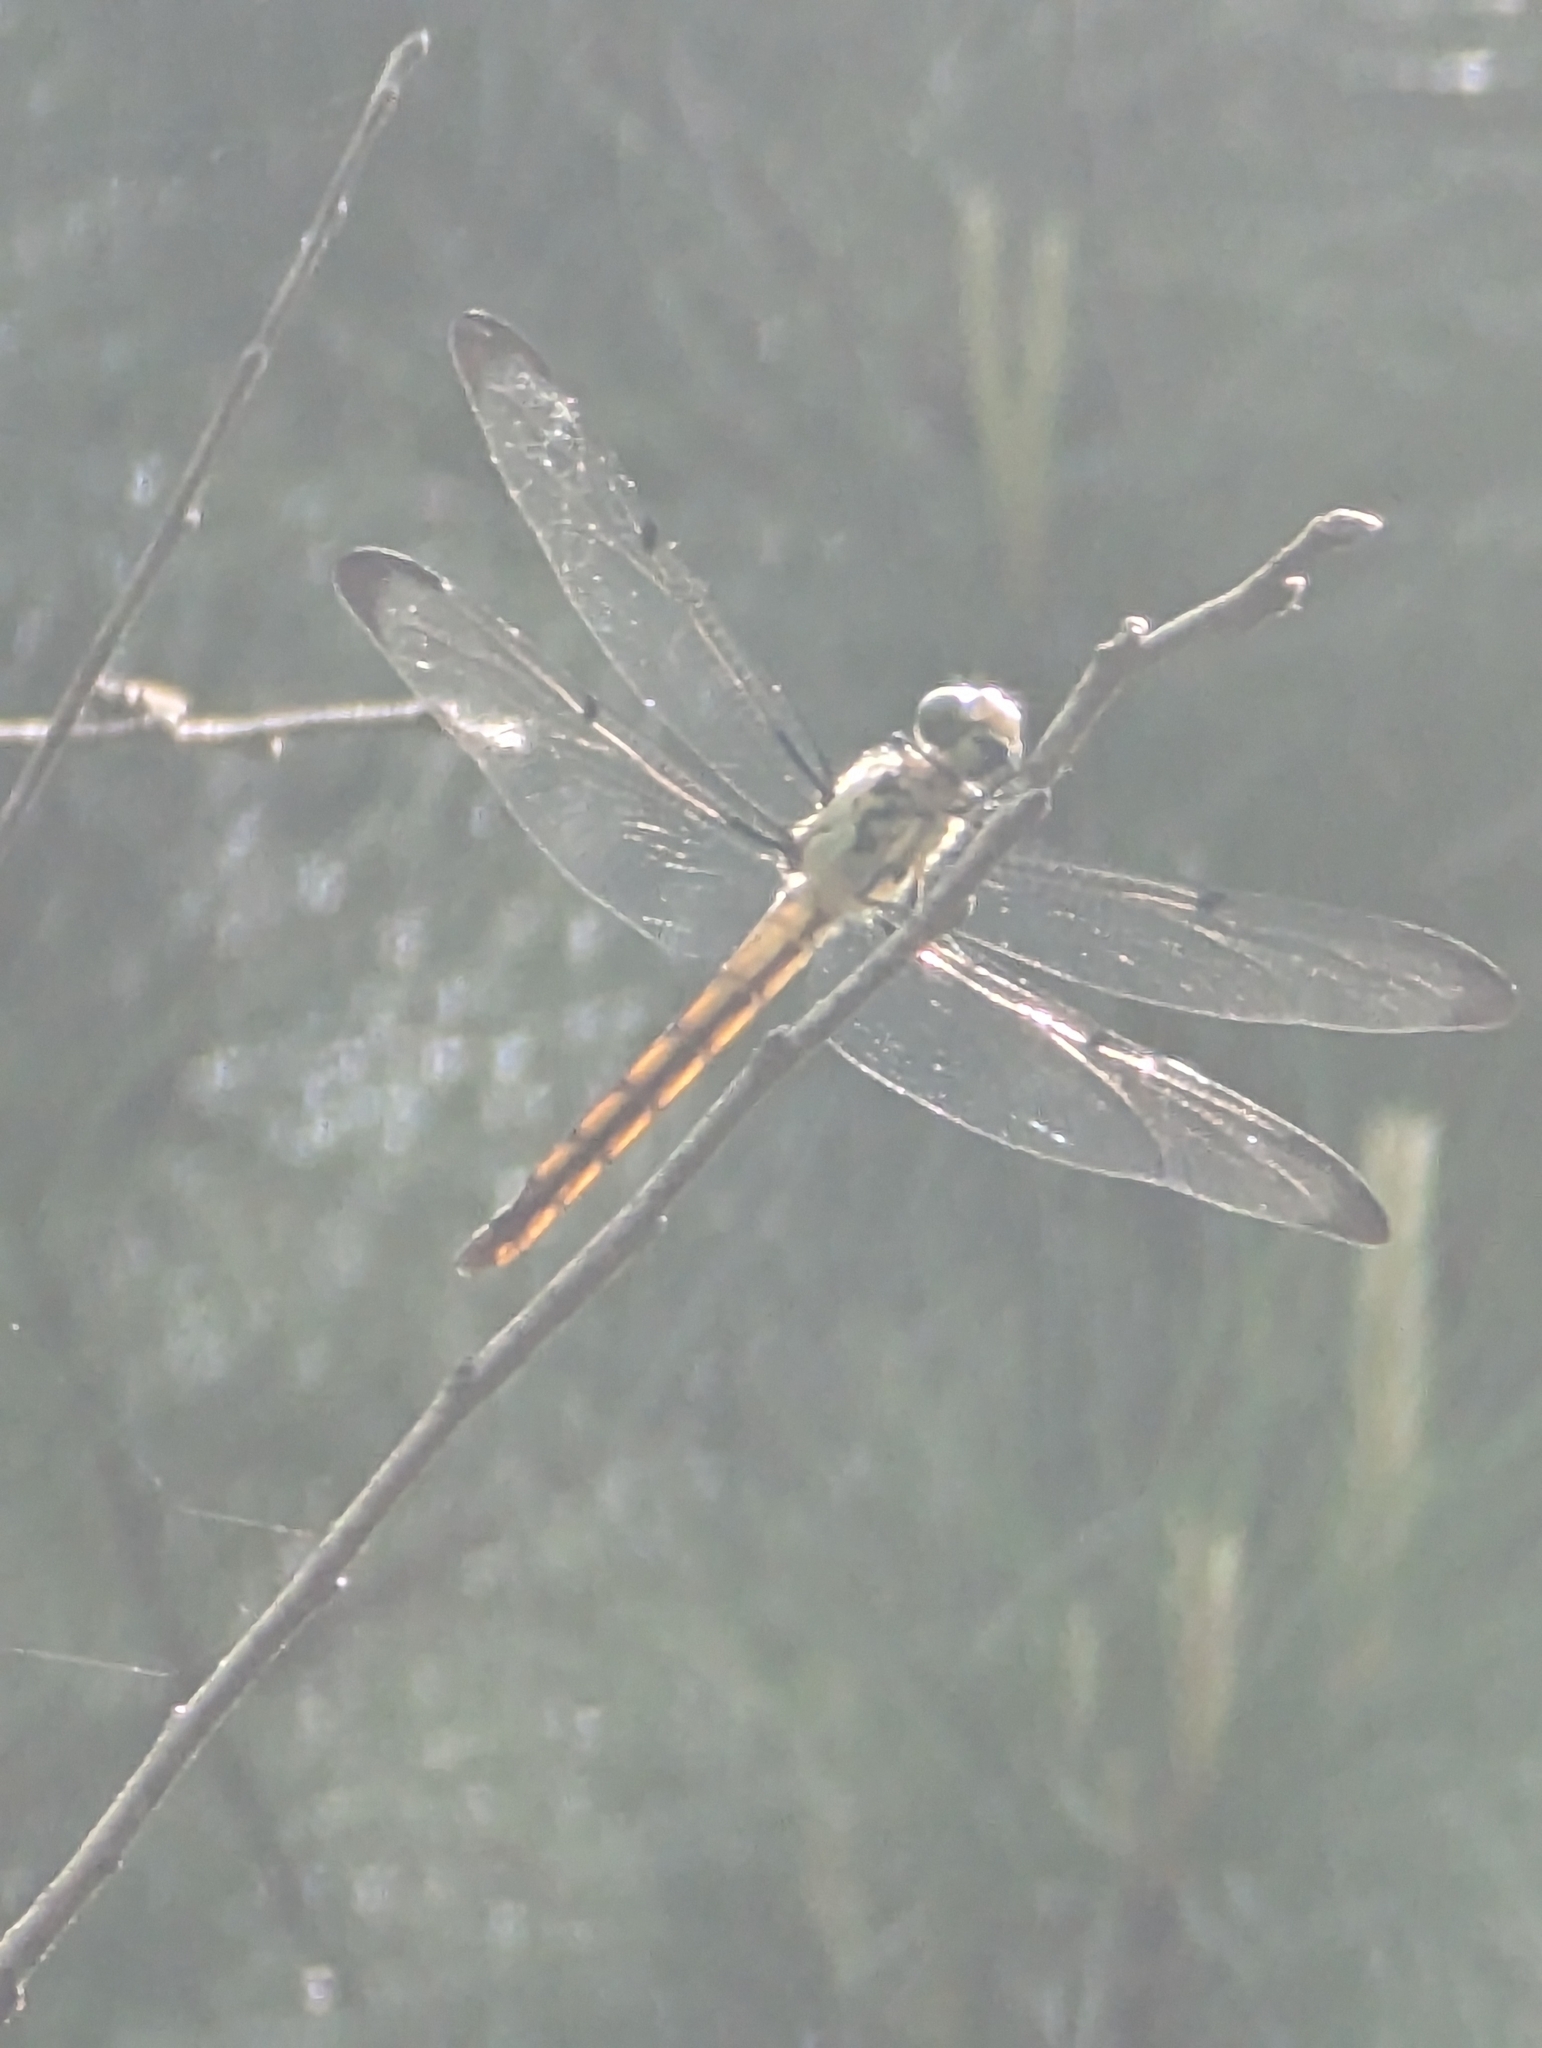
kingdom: Animalia
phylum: Arthropoda
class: Insecta
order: Odonata
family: Libellulidae
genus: Libellula
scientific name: Libellula vibrans
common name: Great blue skimmer
